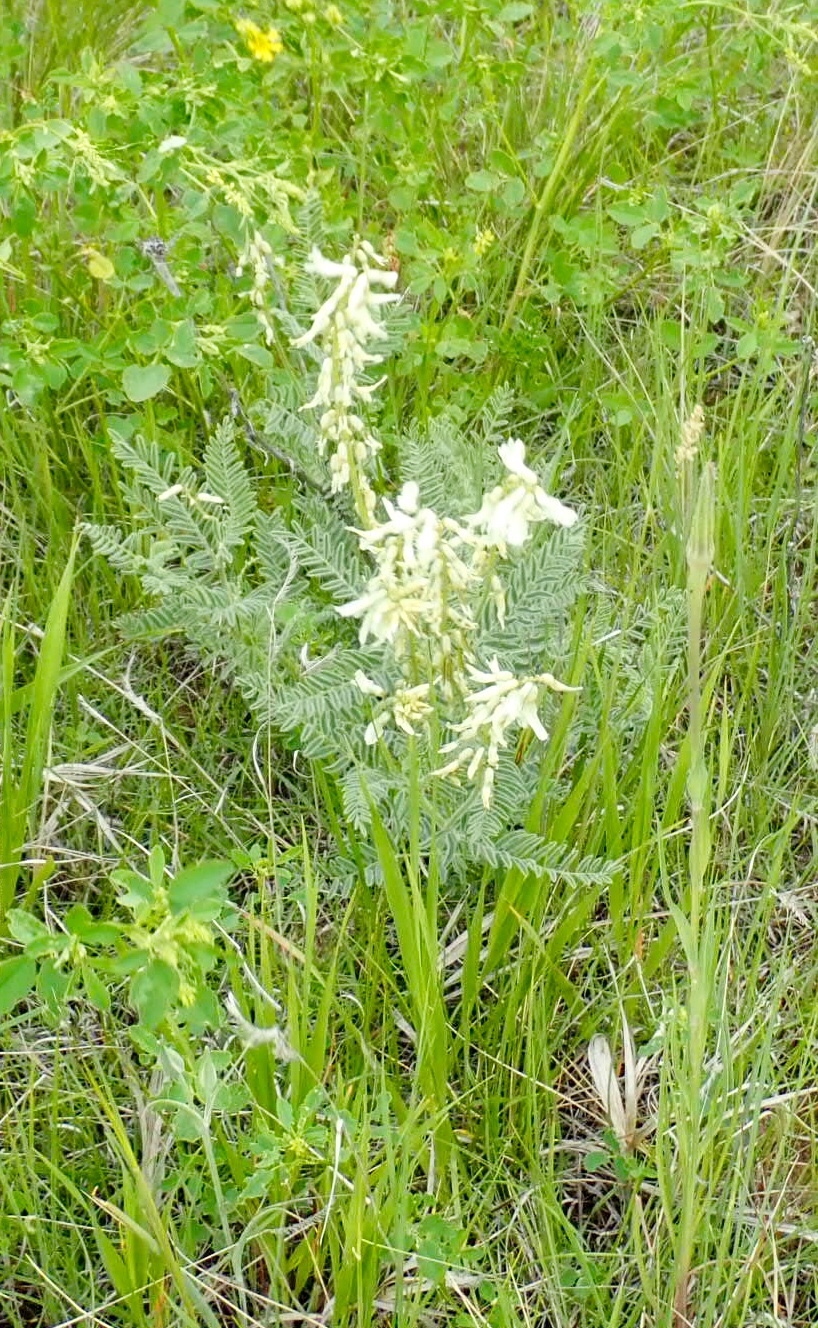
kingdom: Plantae
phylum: Tracheophyta
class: Magnoliopsida
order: Fabales
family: Fabaceae
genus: Astragalus
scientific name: Astragalus drummondii
